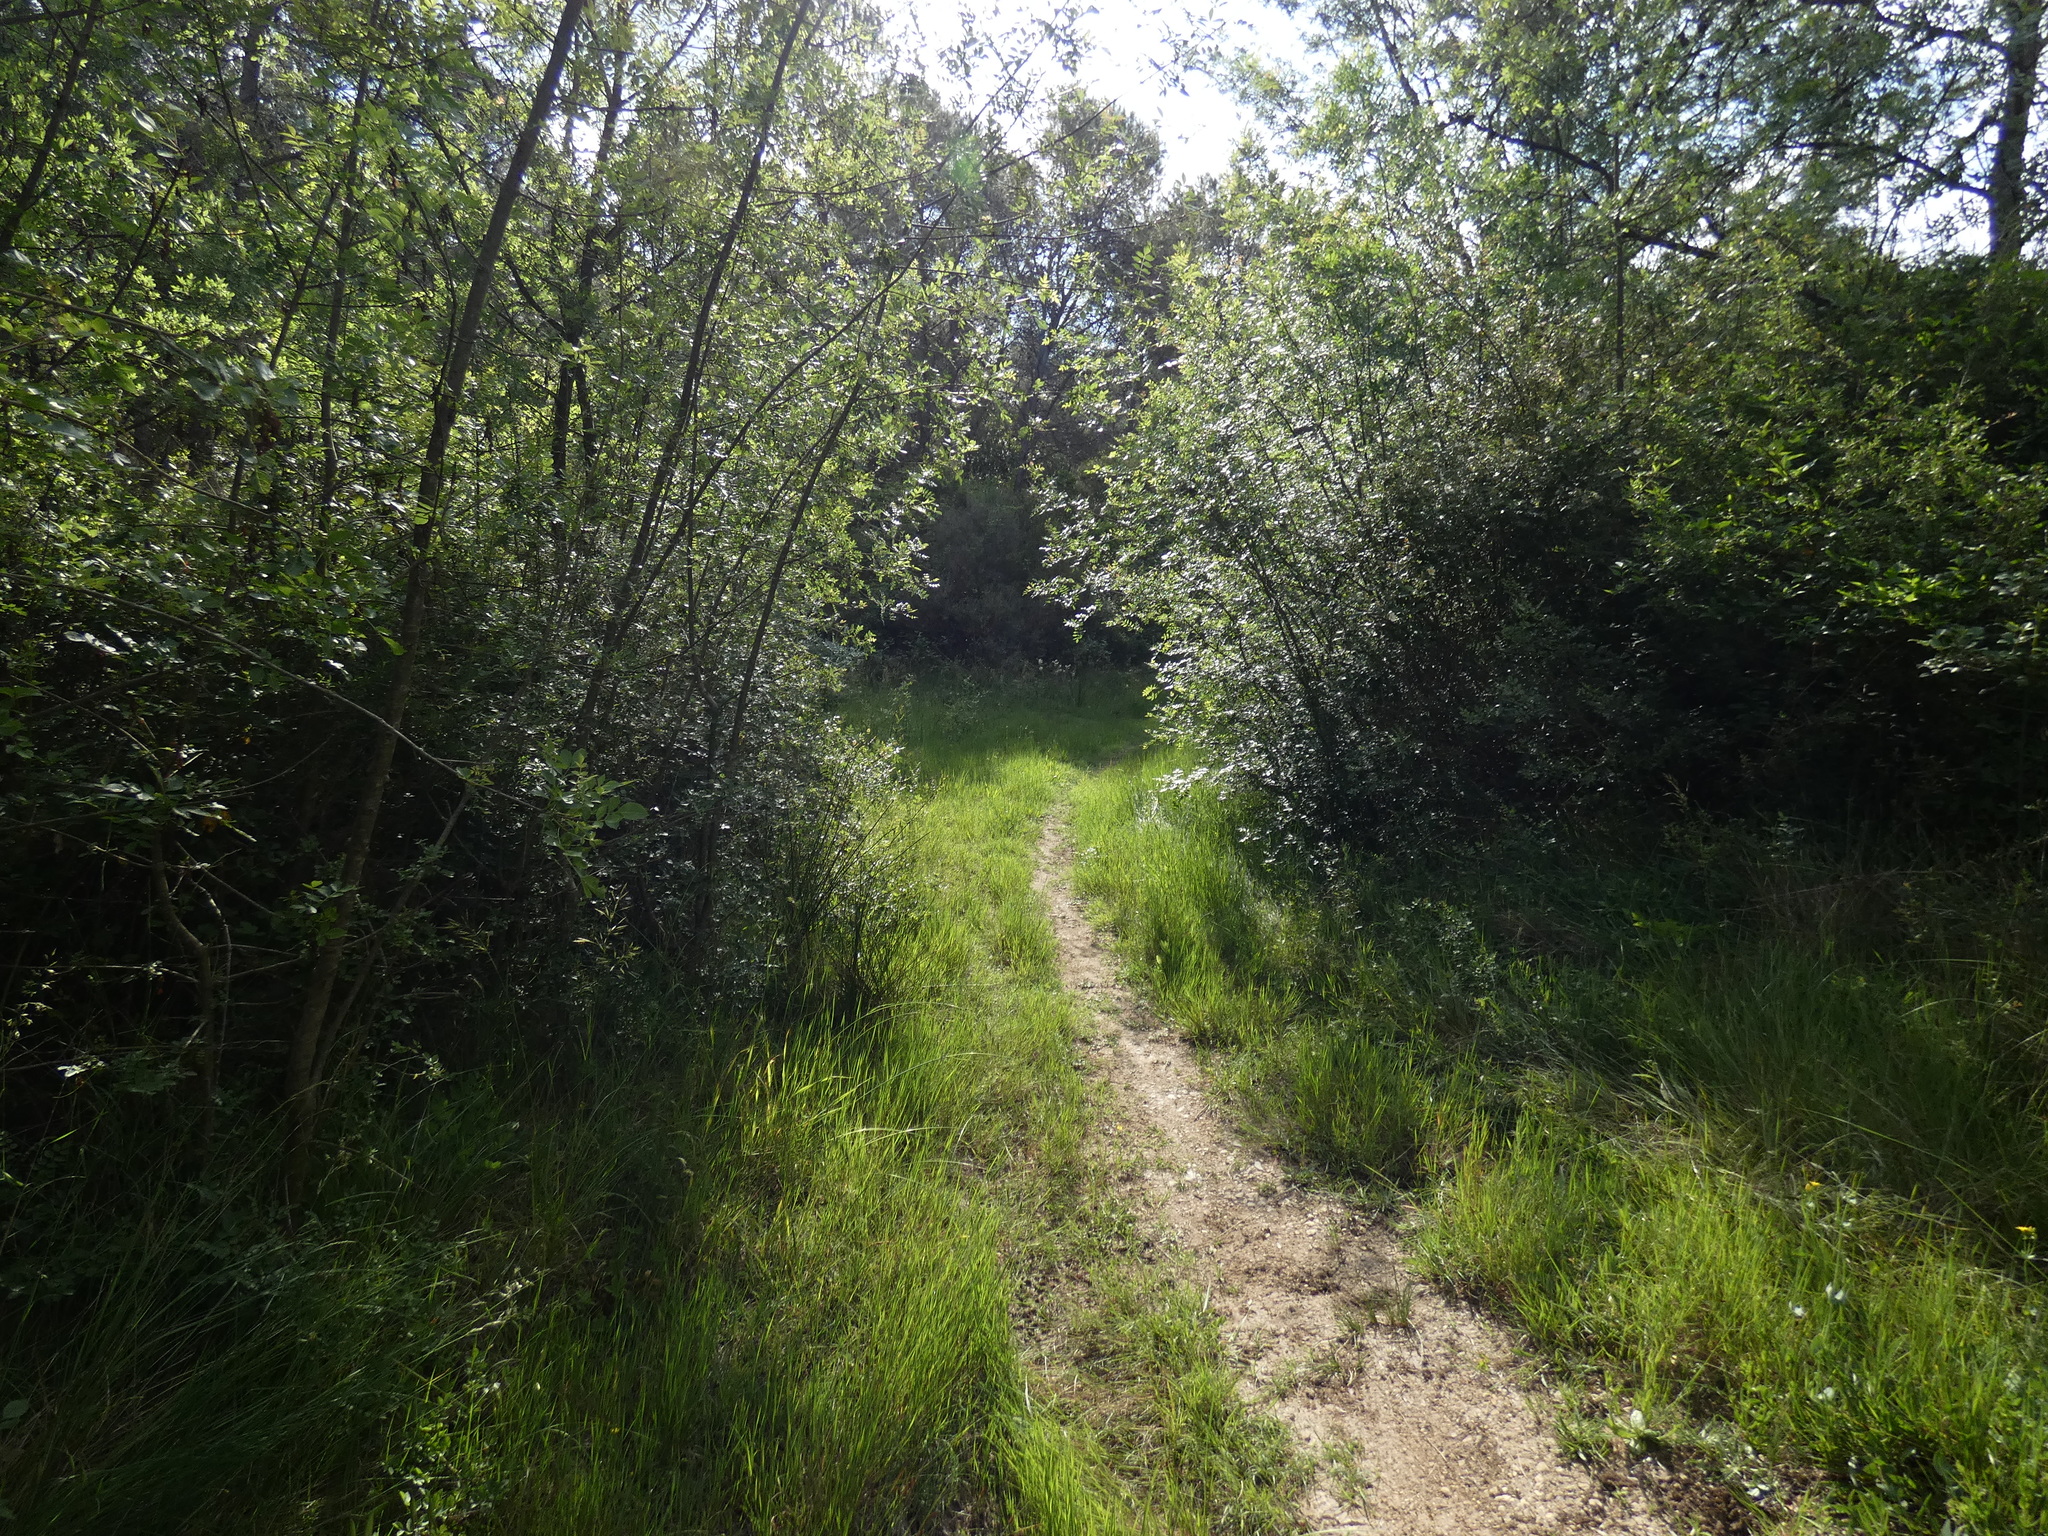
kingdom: Plantae
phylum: Tracheophyta
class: Liliopsida
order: Asparagales
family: Iridaceae
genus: Gladiolus
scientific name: Gladiolus dubius
